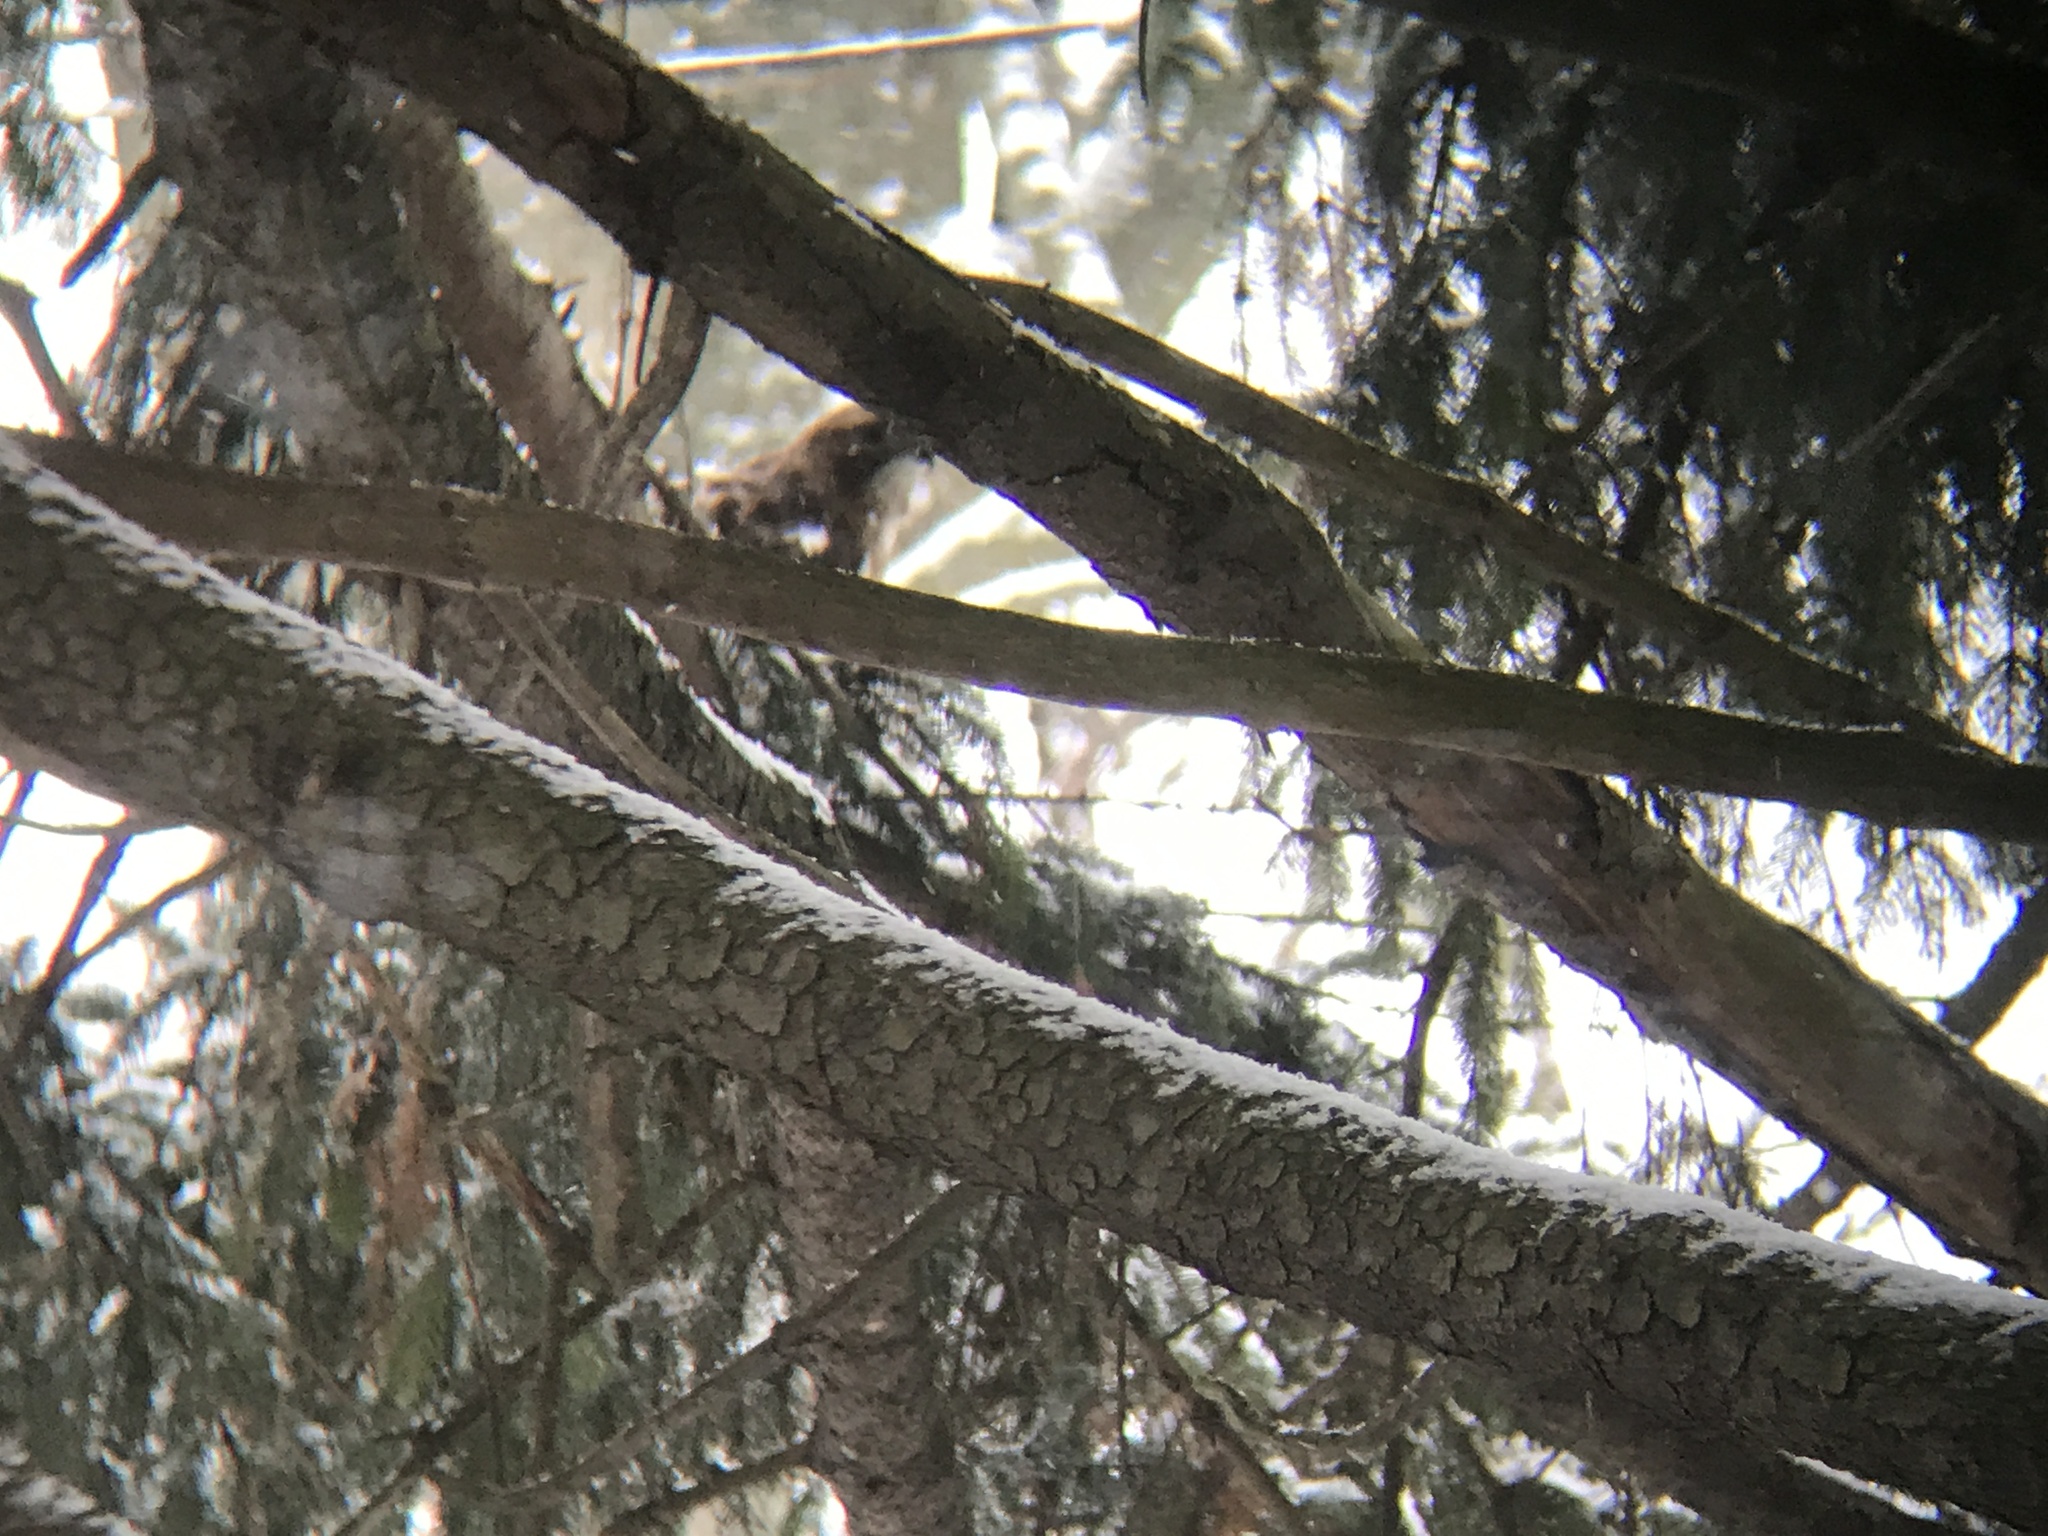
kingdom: Animalia
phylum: Chordata
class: Aves
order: Accipitriformes
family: Accipitridae
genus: Buteo
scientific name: Buteo jamaicensis
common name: Red-tailed hawk
